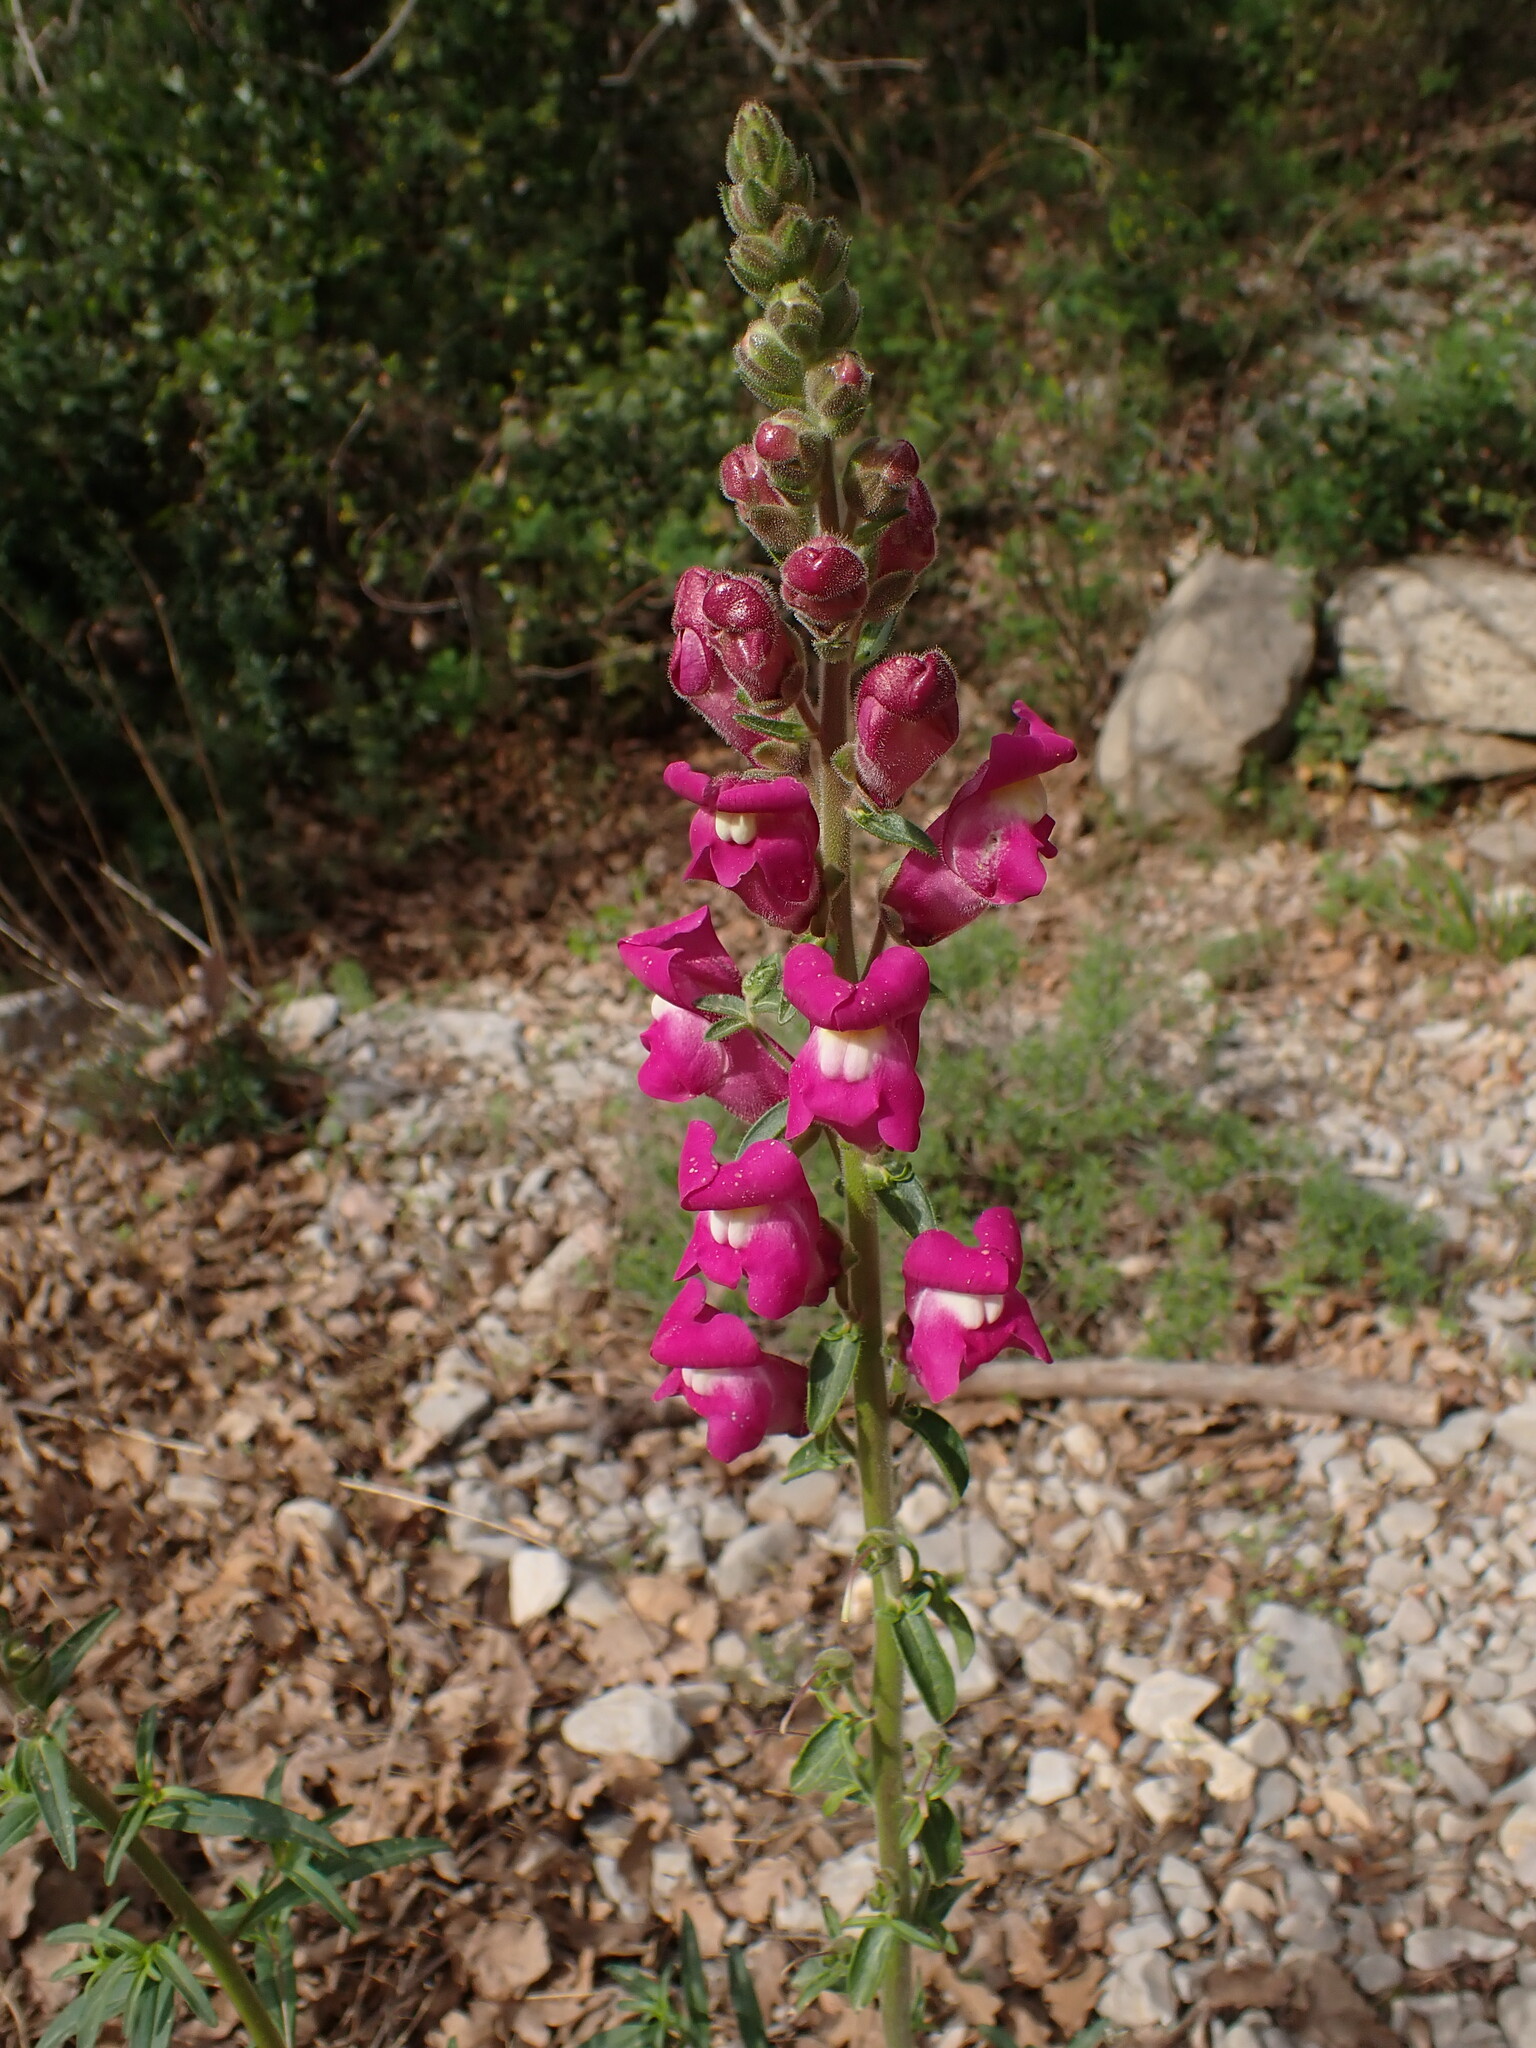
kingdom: Plantae
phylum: Tracheophyta
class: Magnoliopsida
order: Lamiales
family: Plantaginaceae
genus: Antirrhinum
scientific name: Antirrhinum majus
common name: Snapdragon
